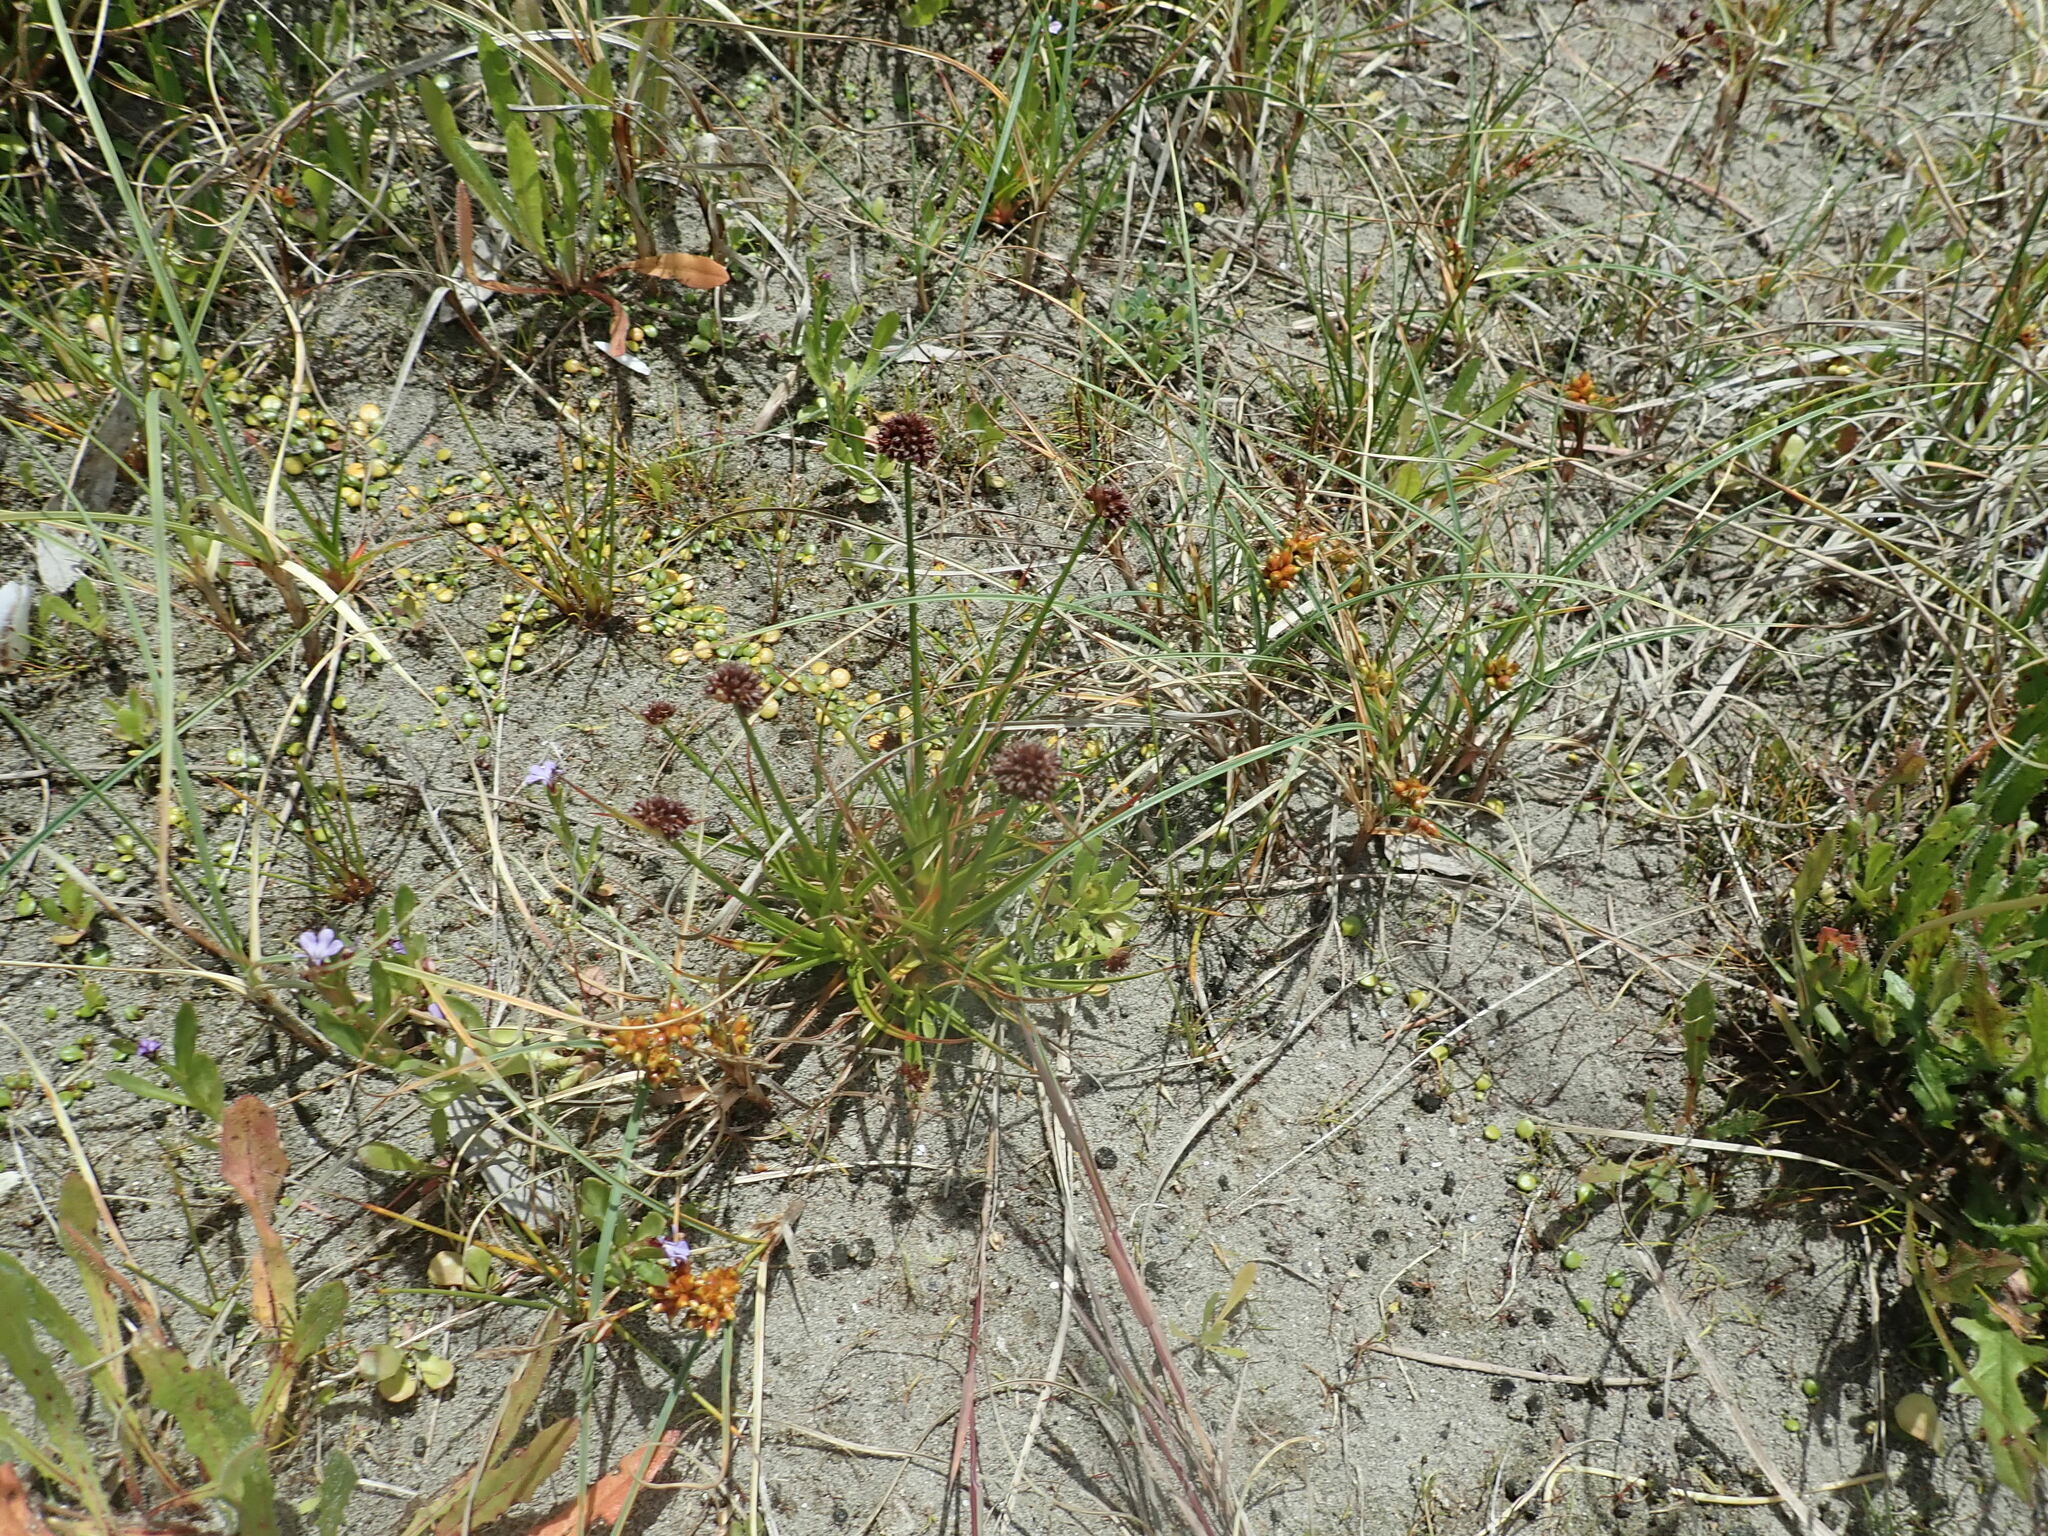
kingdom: Plantae
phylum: Tracheophyta
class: Liliopsida
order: Poales
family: Juncaceae
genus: Juncus
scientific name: Juncus caespiticius
